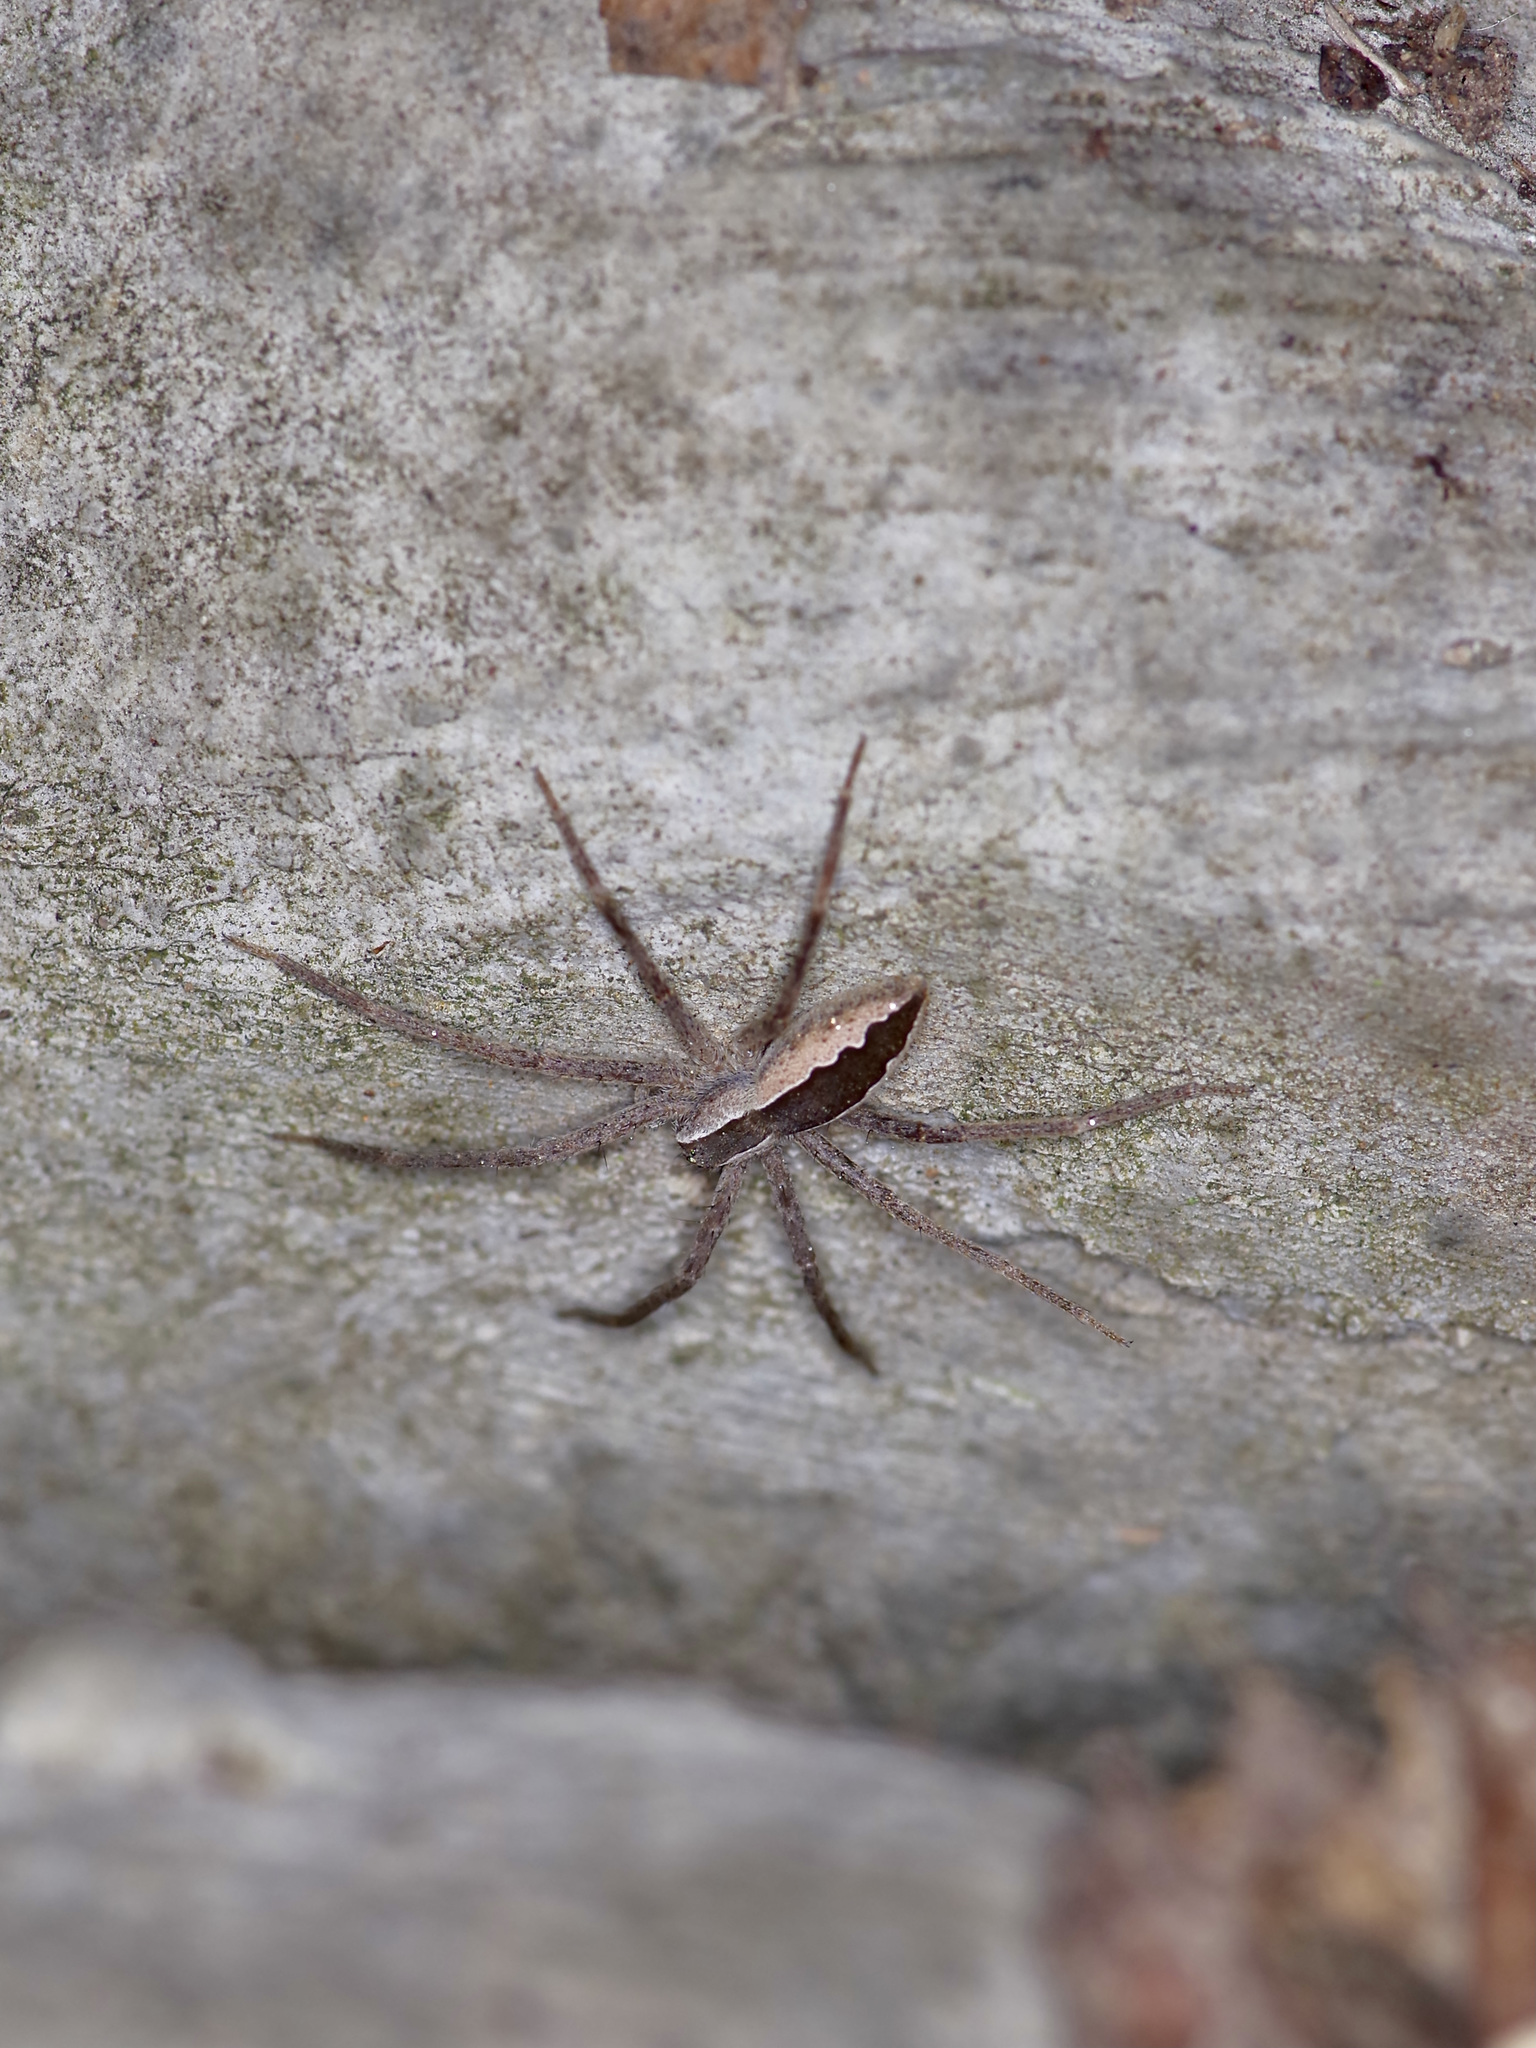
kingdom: Animalia
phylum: Arthropoda
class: Arachnida
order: Araneae
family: Pisauridae
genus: Pisaurina
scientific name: Pisaurina mira
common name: American nursery web spider
